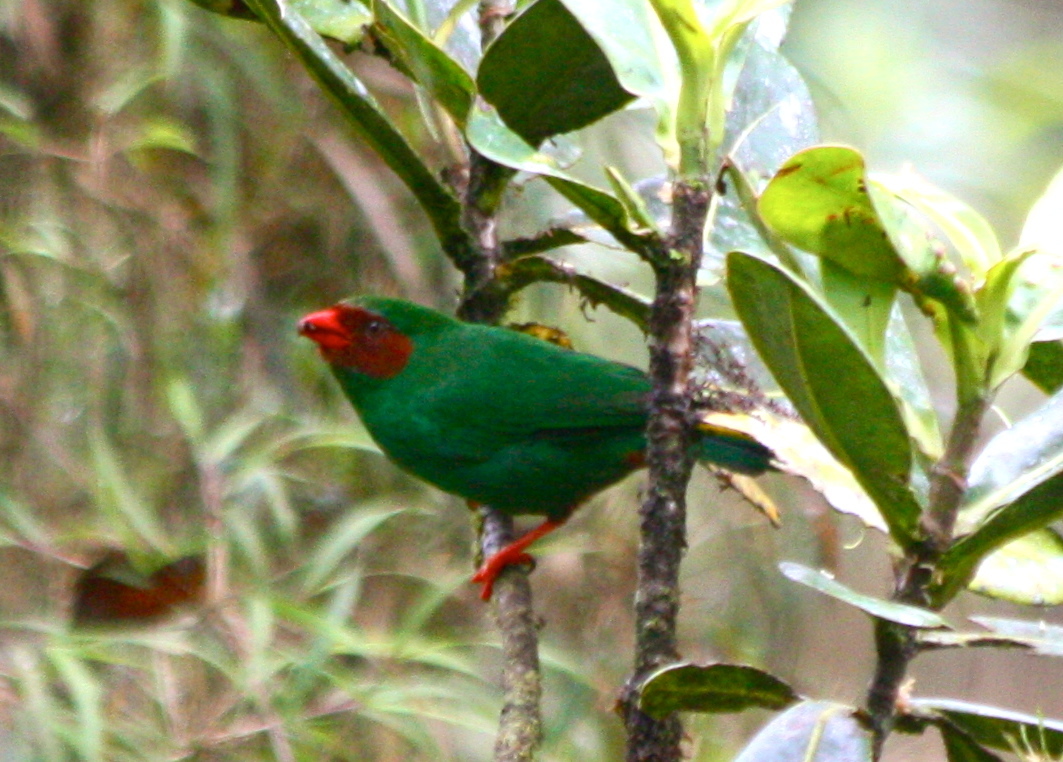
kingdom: Animalia
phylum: Chordata
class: Aves
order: Passeriformes
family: Thraupidae
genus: Chlorornis
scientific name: Chlorornis riefferii
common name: Grass-green tanager
